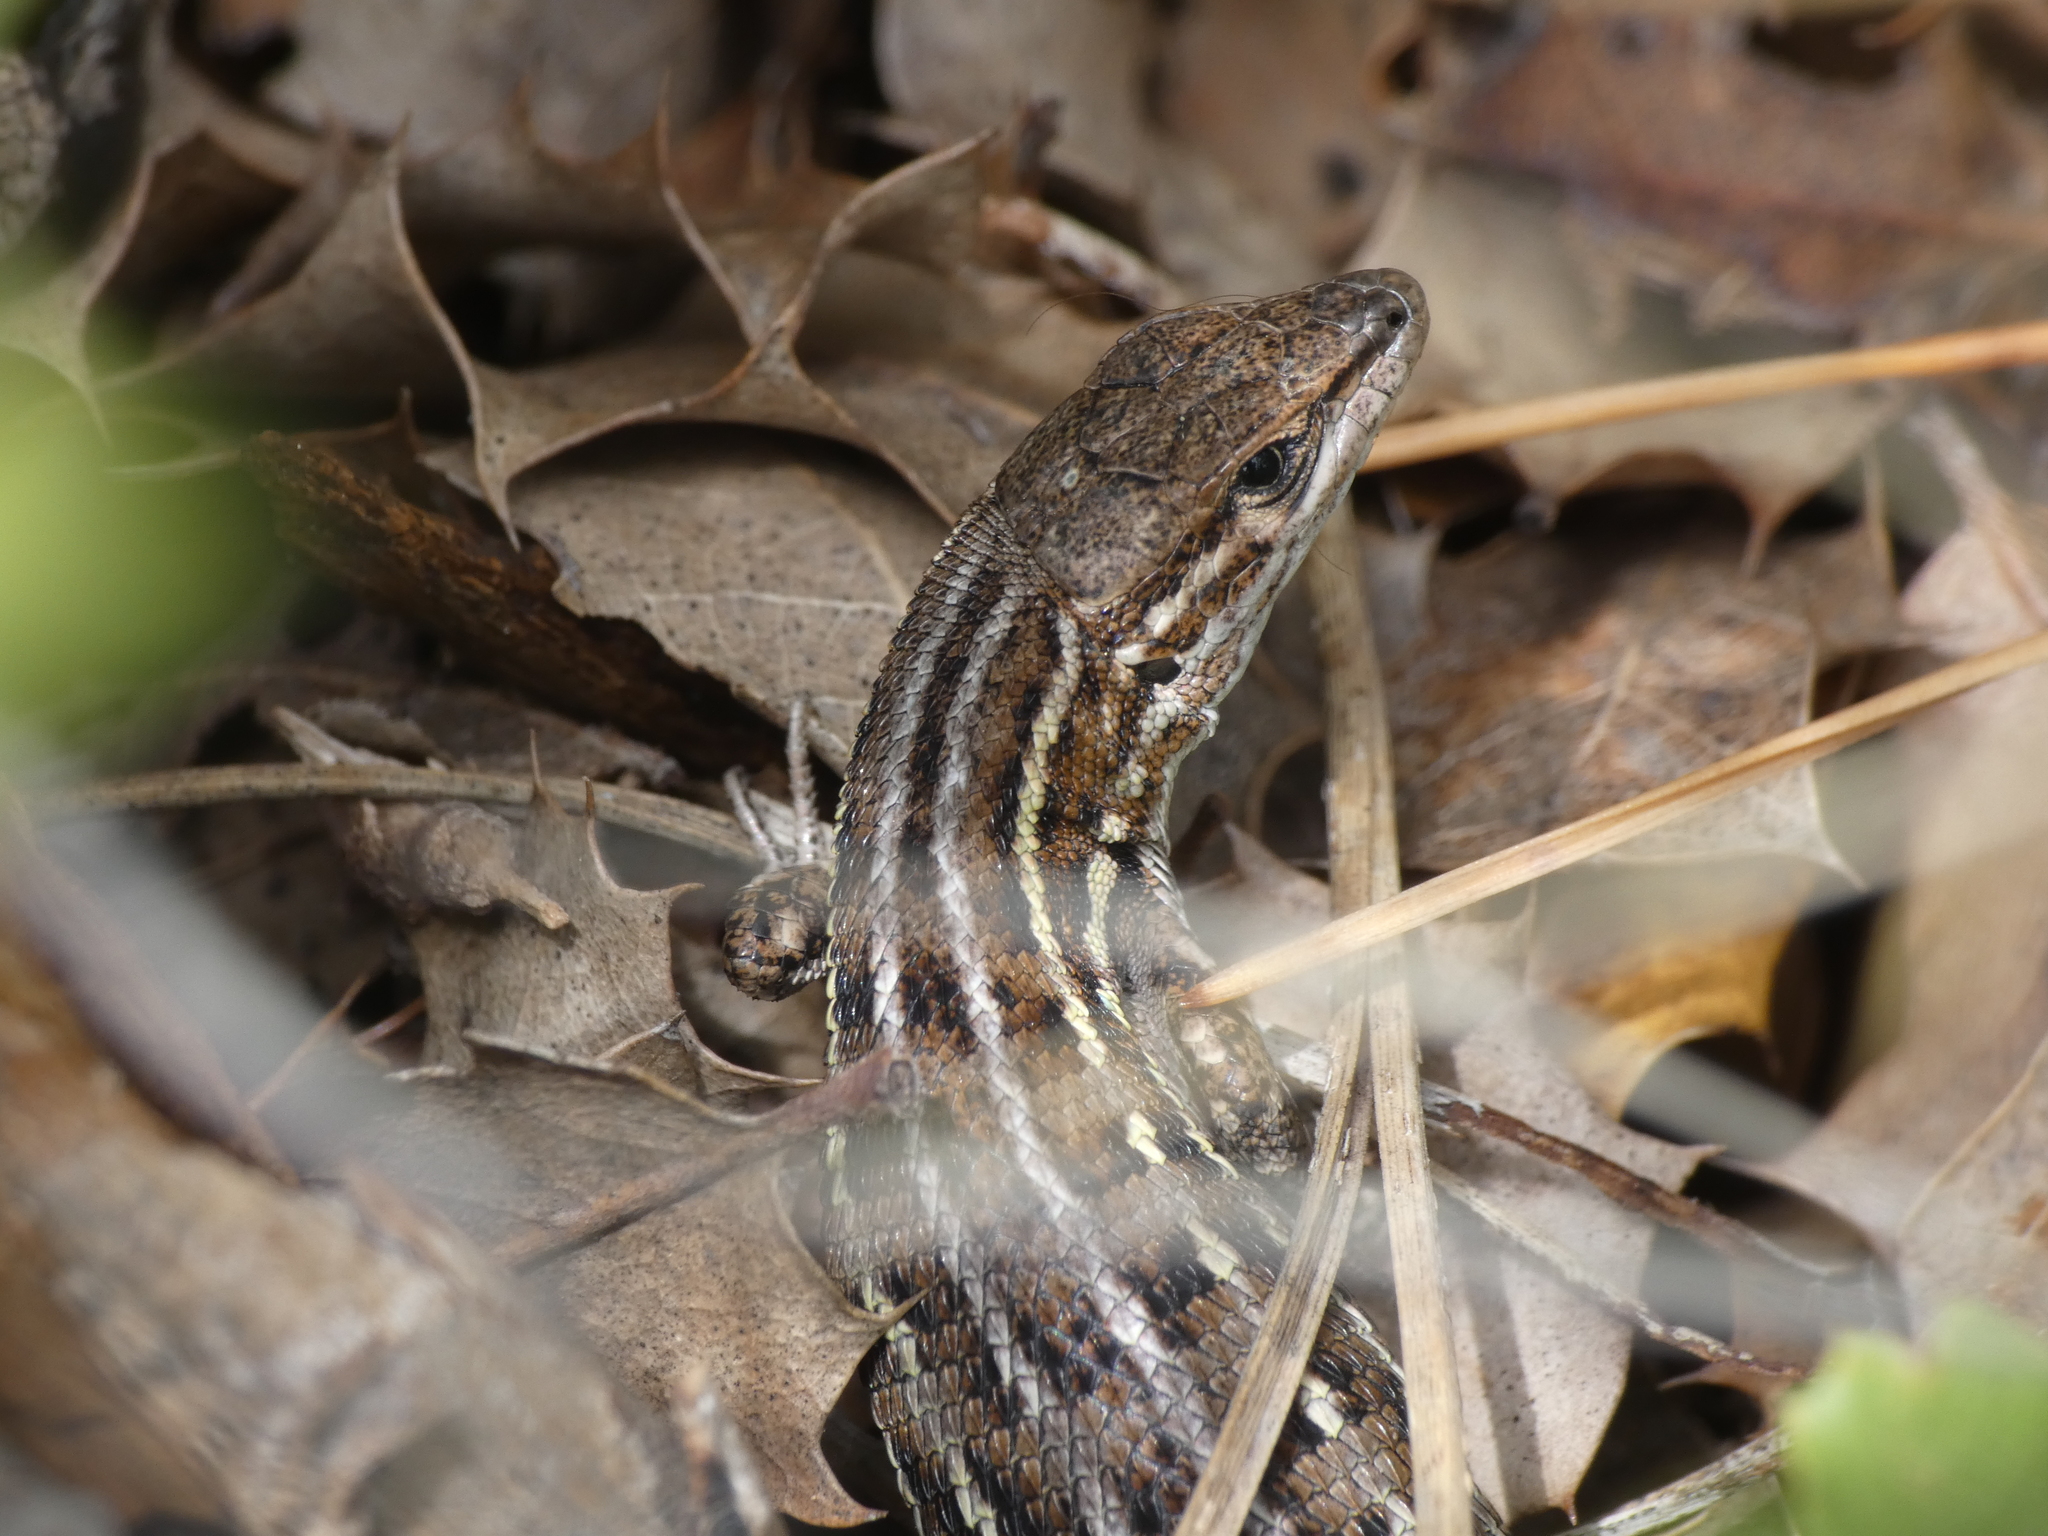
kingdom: Animalia
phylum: Chordata
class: Squamata
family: Lacertidae
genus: Psammodromus
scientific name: Psammodromus edwarsianus
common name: East iberian psammodromus
